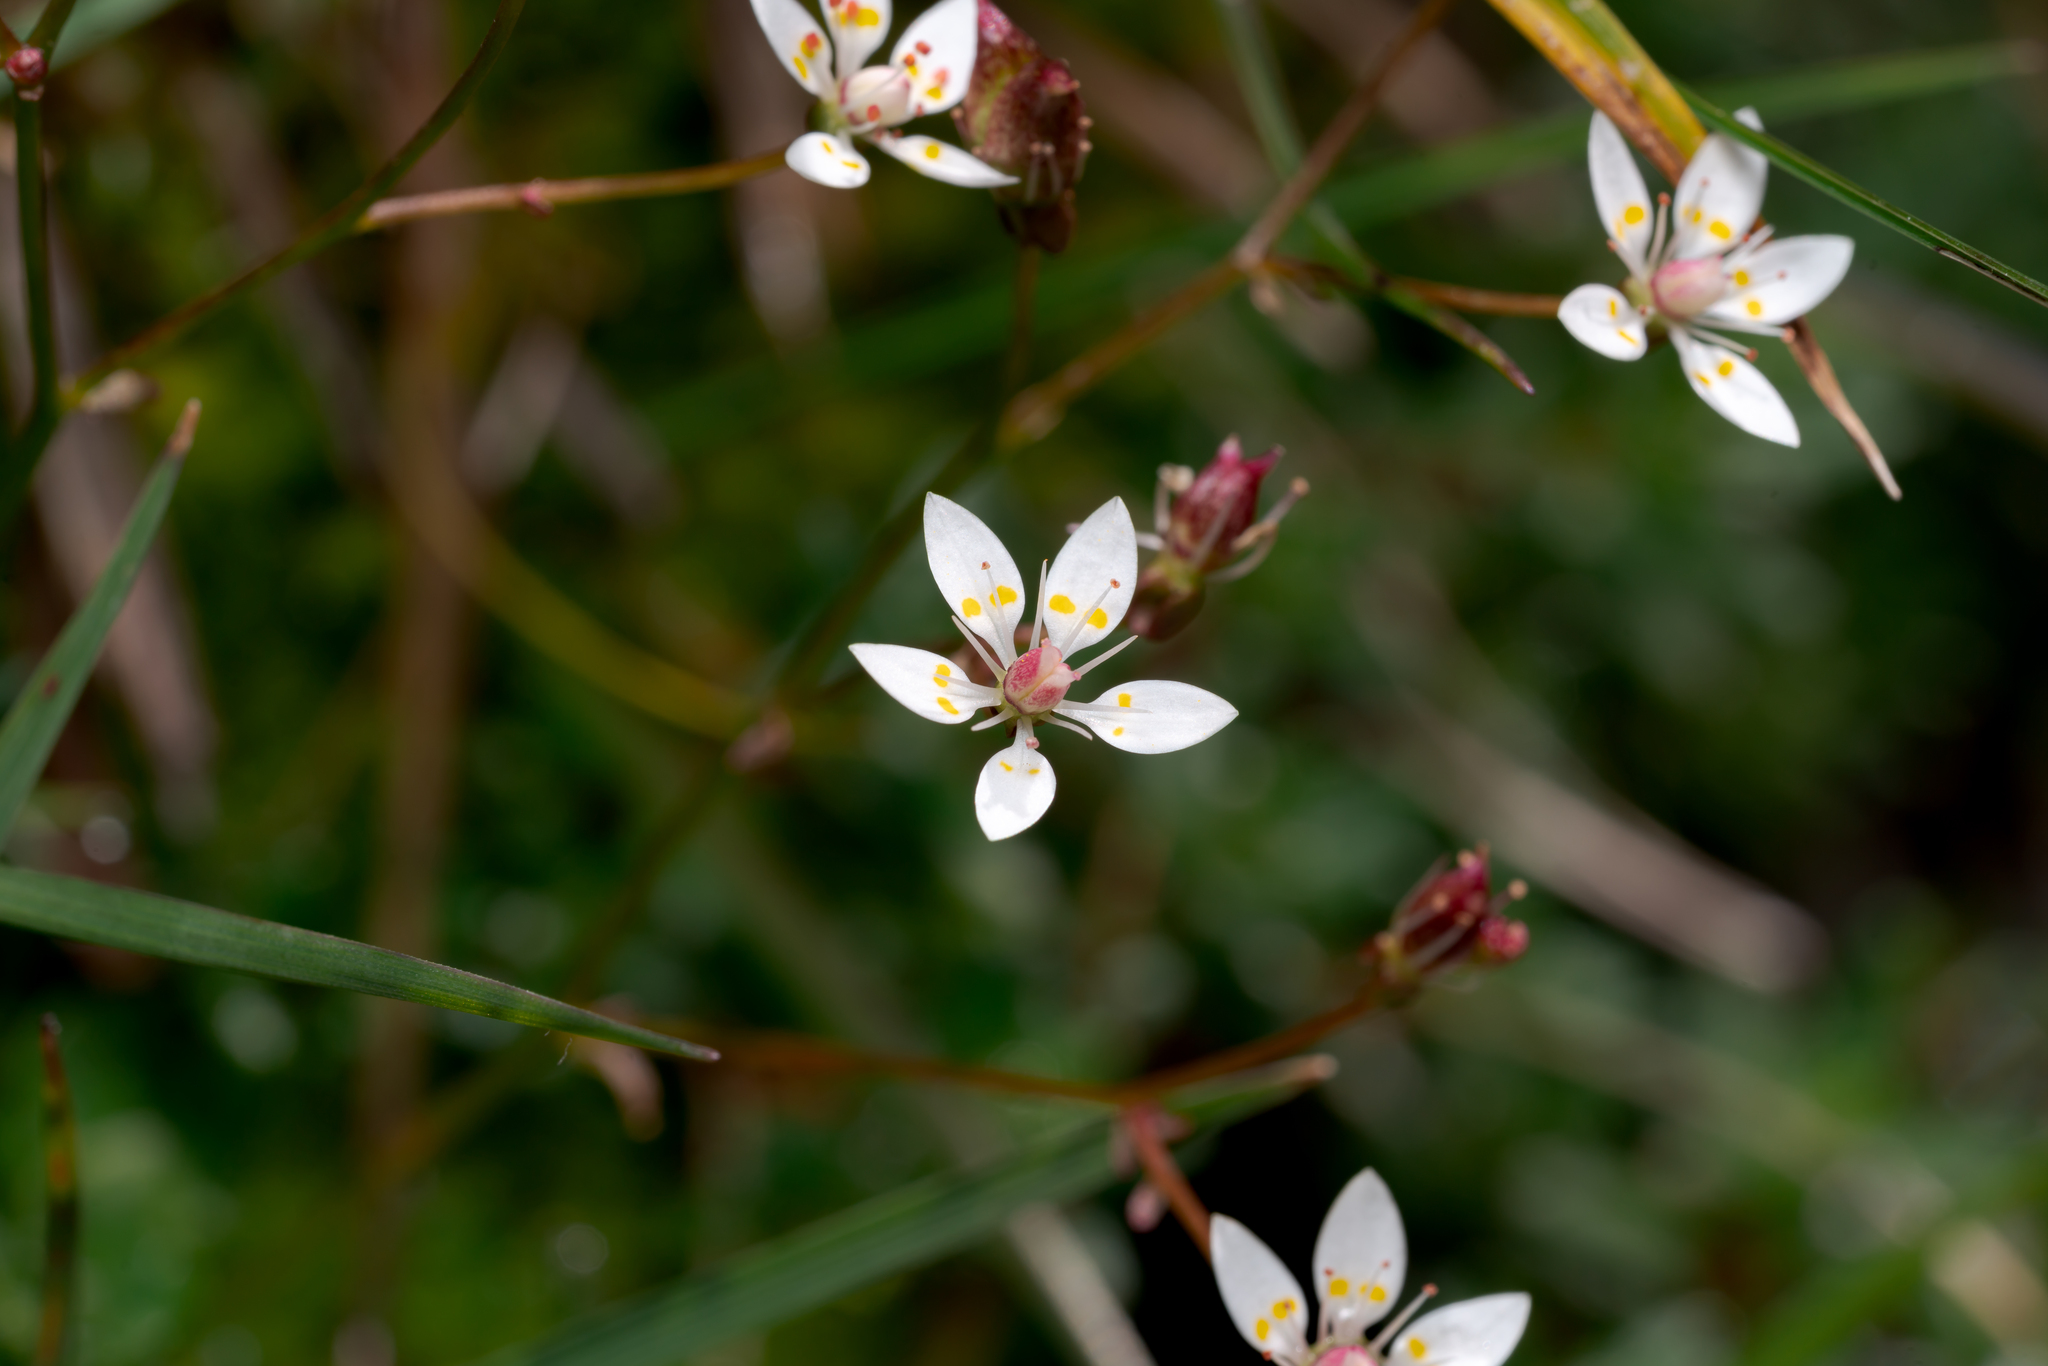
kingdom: Plantae
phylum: Tracheophyta
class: Magnoliopsida
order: Saxifragales
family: Saxifragaceae
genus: Micranthes
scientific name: Micranthes stellaris
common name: Starry saxifrage
